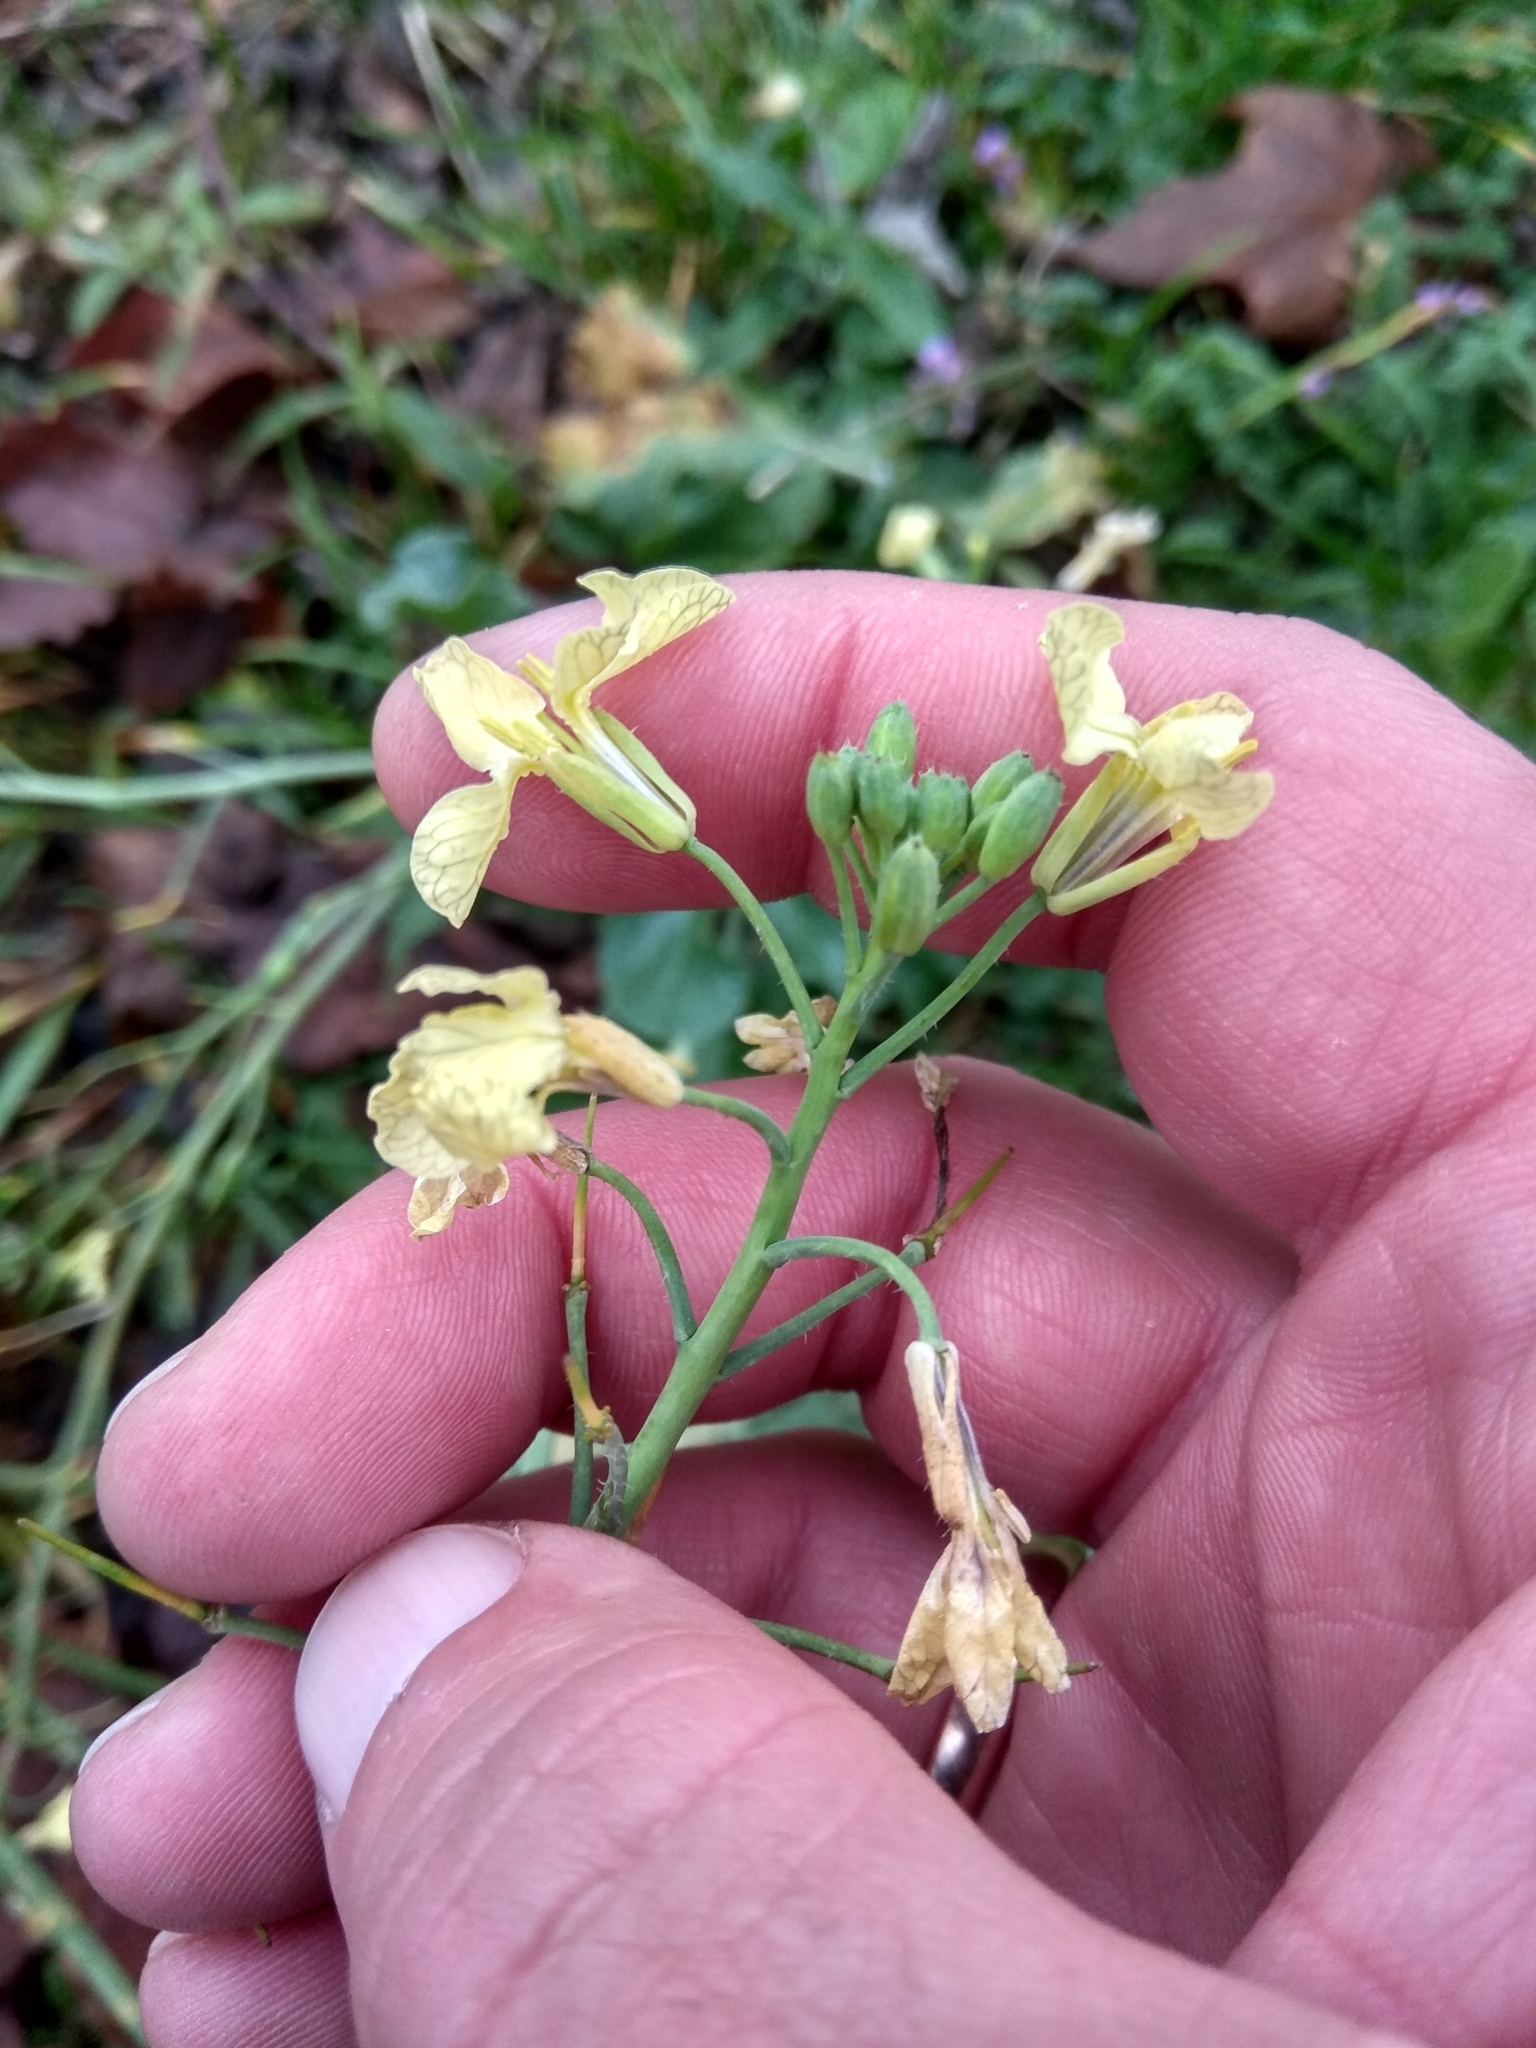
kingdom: Plantae
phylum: Tracheophyta
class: Magnoliopsida
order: Brassicales
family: Brassicaceae
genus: Raphanus
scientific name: Raphanus raphanistrum
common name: Wild radish
